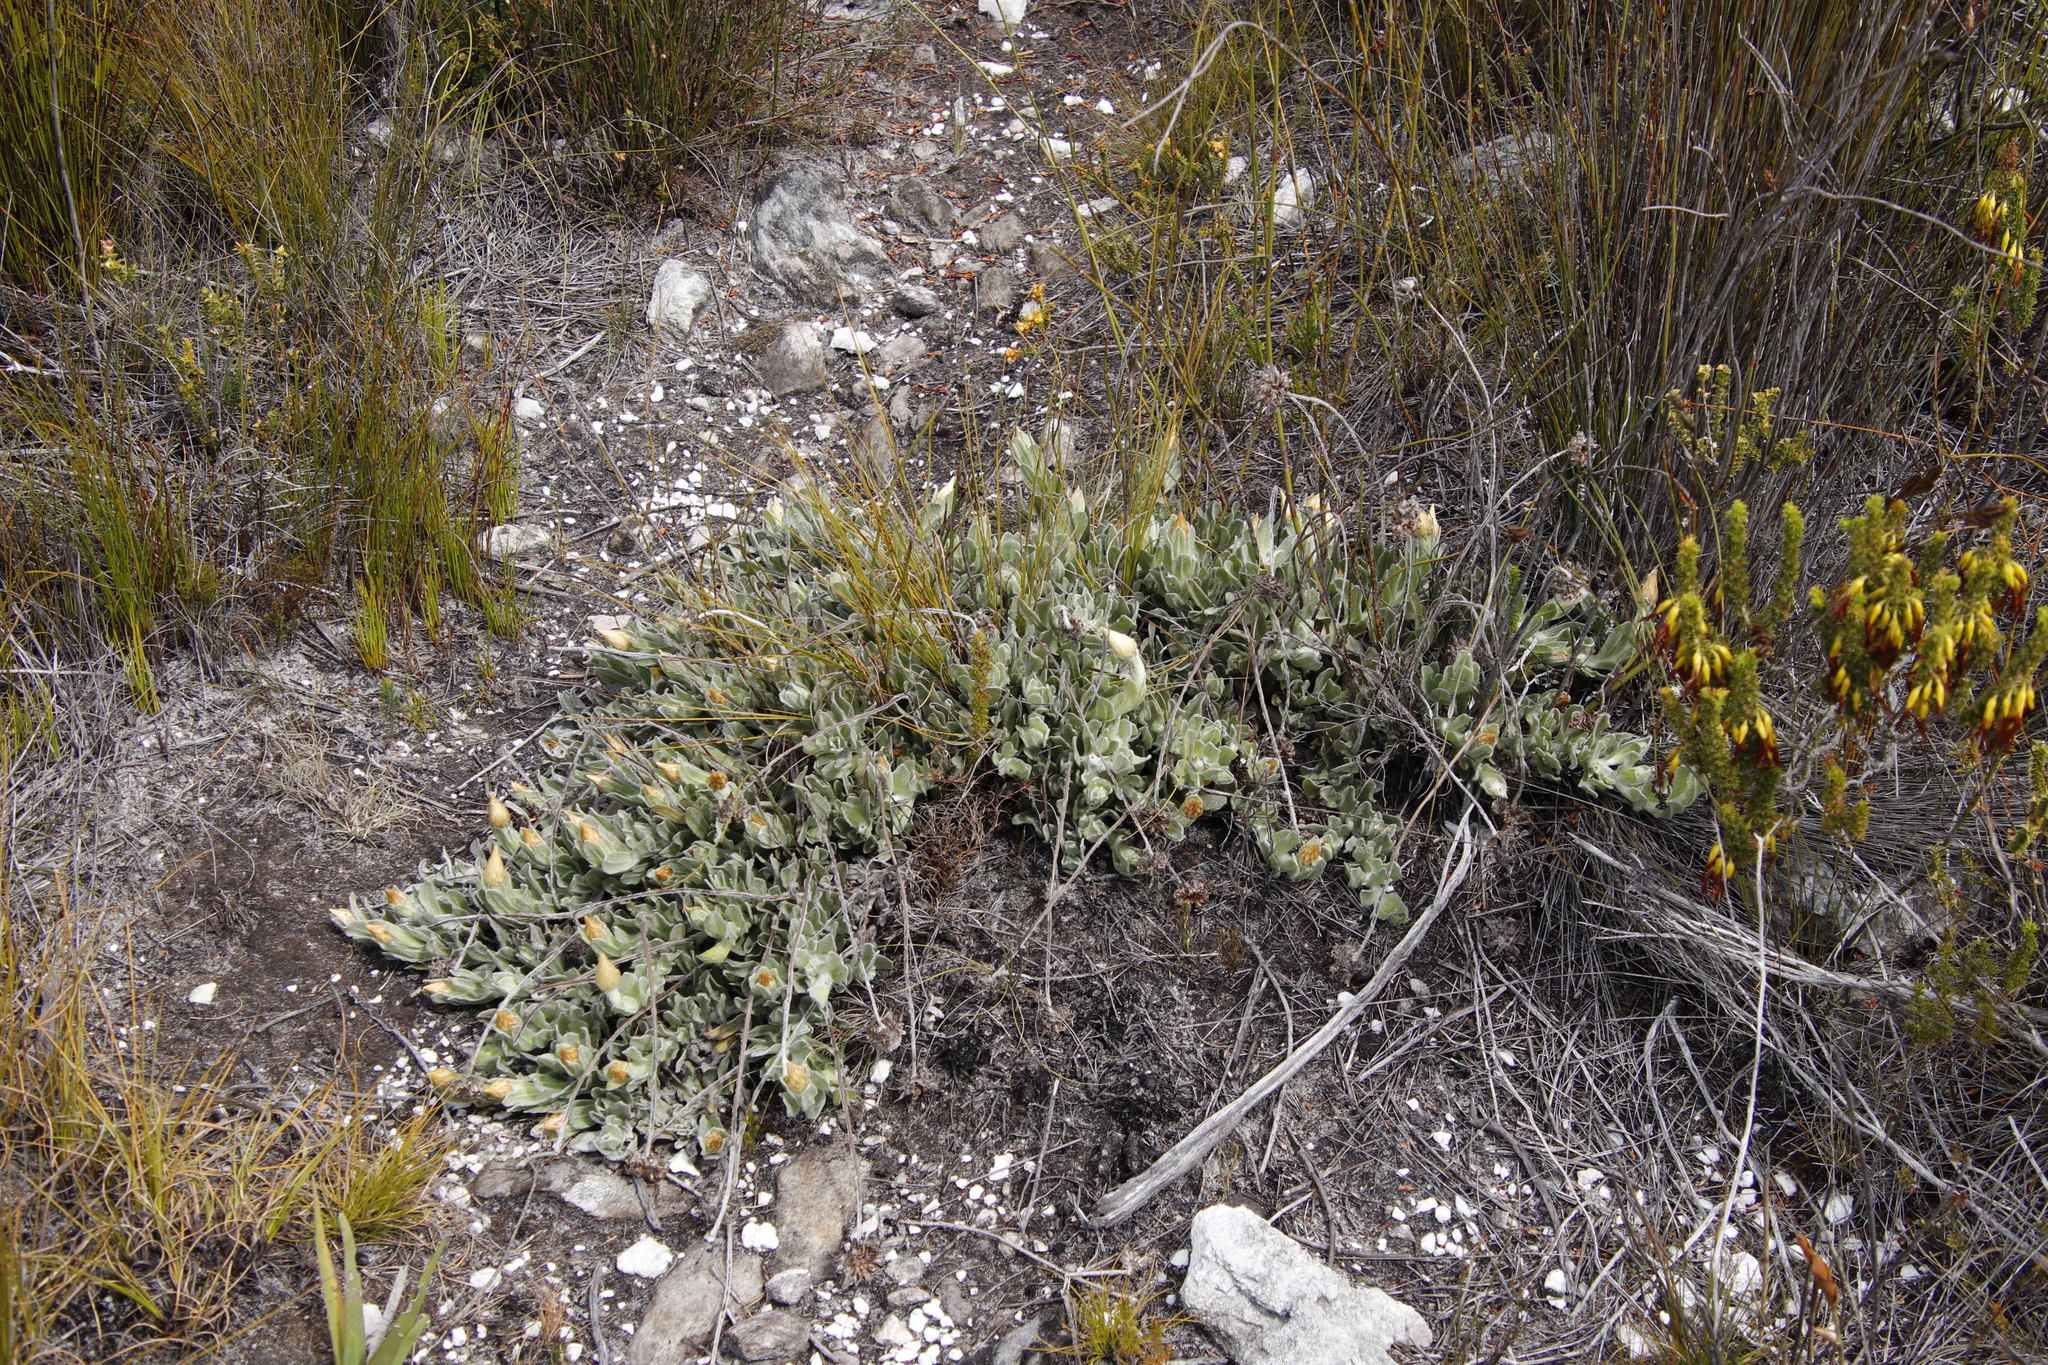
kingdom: Plantae
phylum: Tracheophyta
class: Magnoliopsida
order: Asterales
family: Asteraceae
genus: Syncarpha
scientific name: Syncarpha speciosissima
